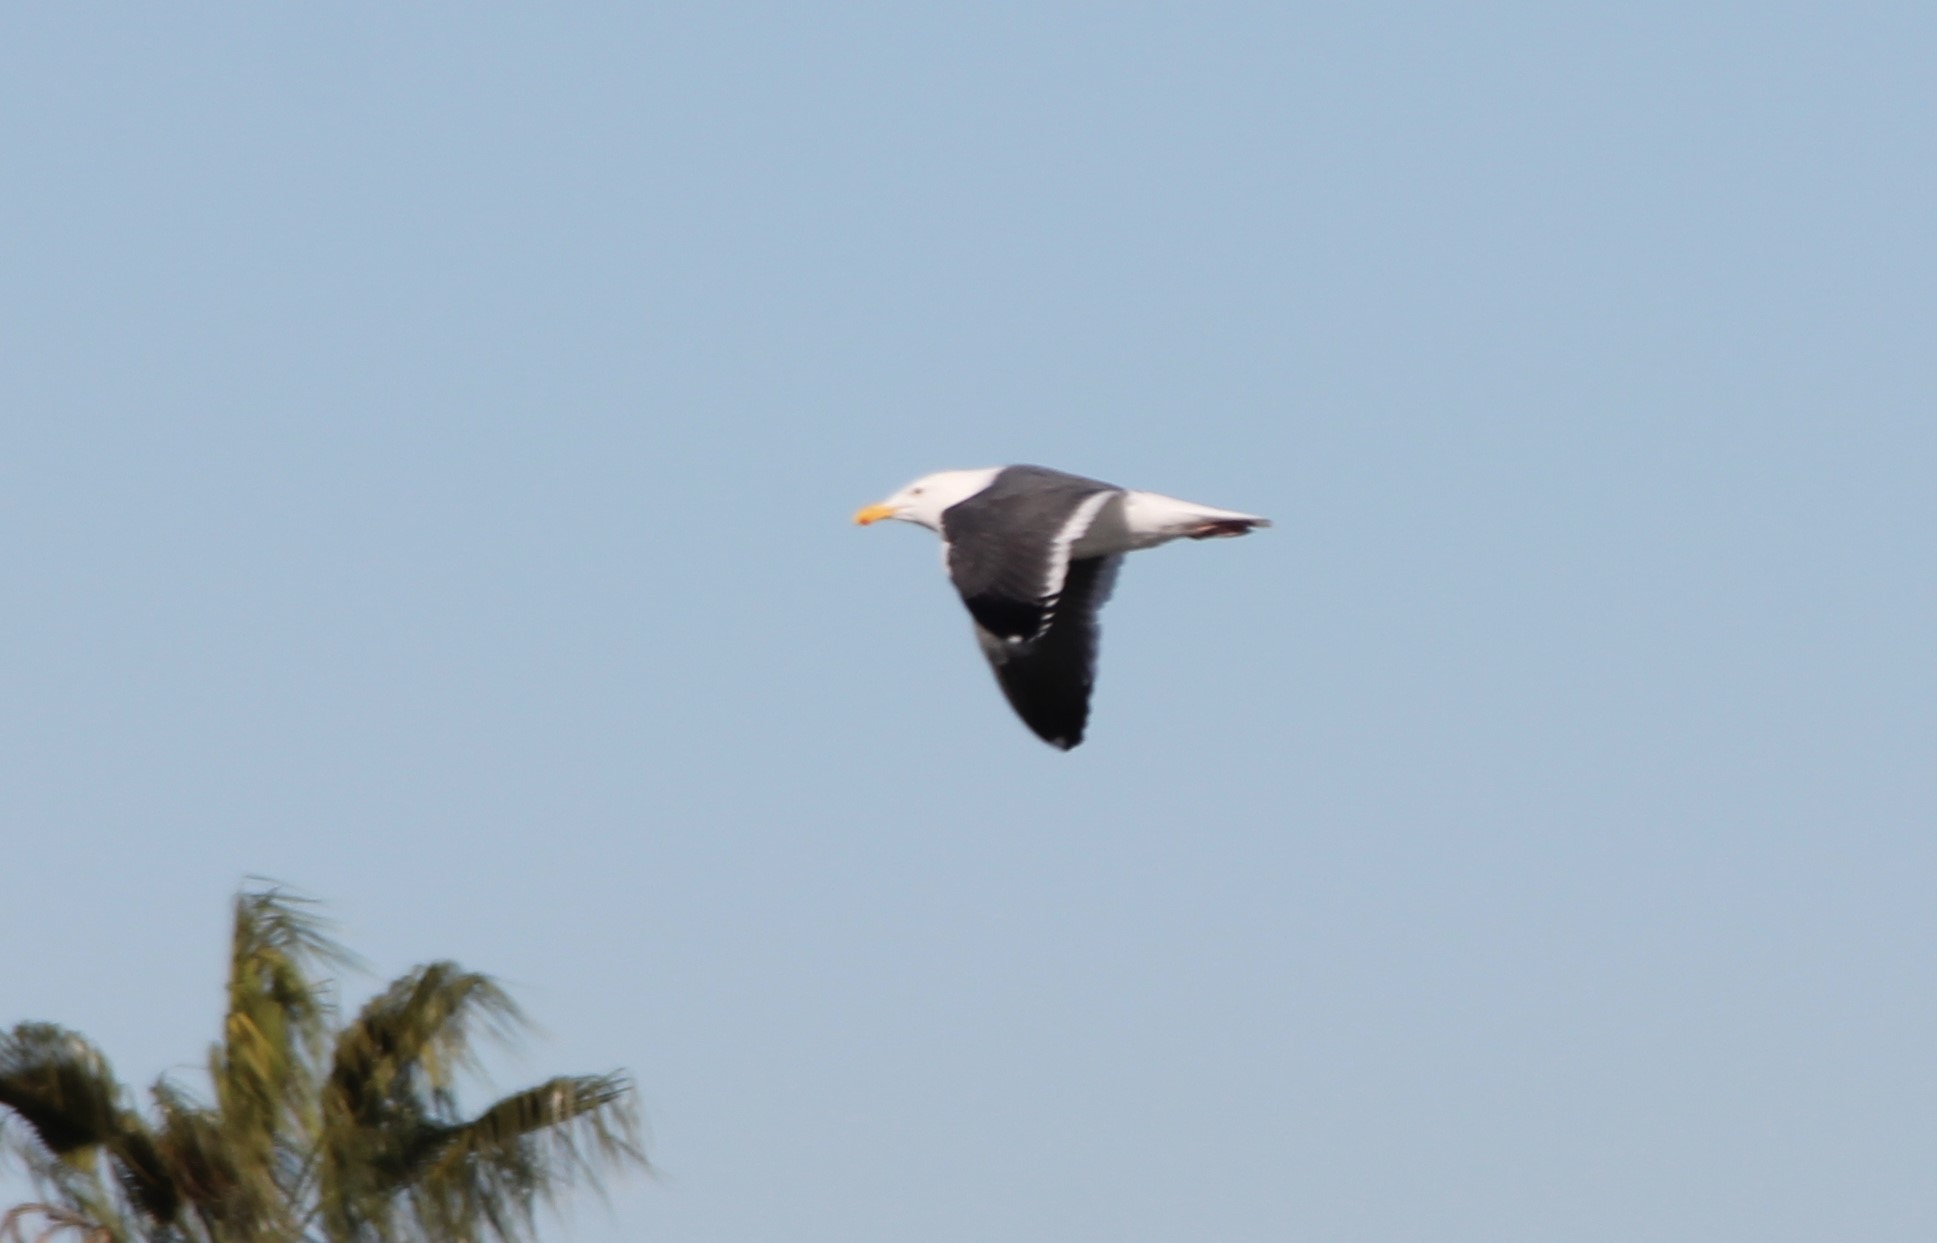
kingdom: Animalia
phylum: Chordata
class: Aves
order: Charadriiformes
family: Laridae
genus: Larus
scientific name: Larus occidentalis
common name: Western gull
